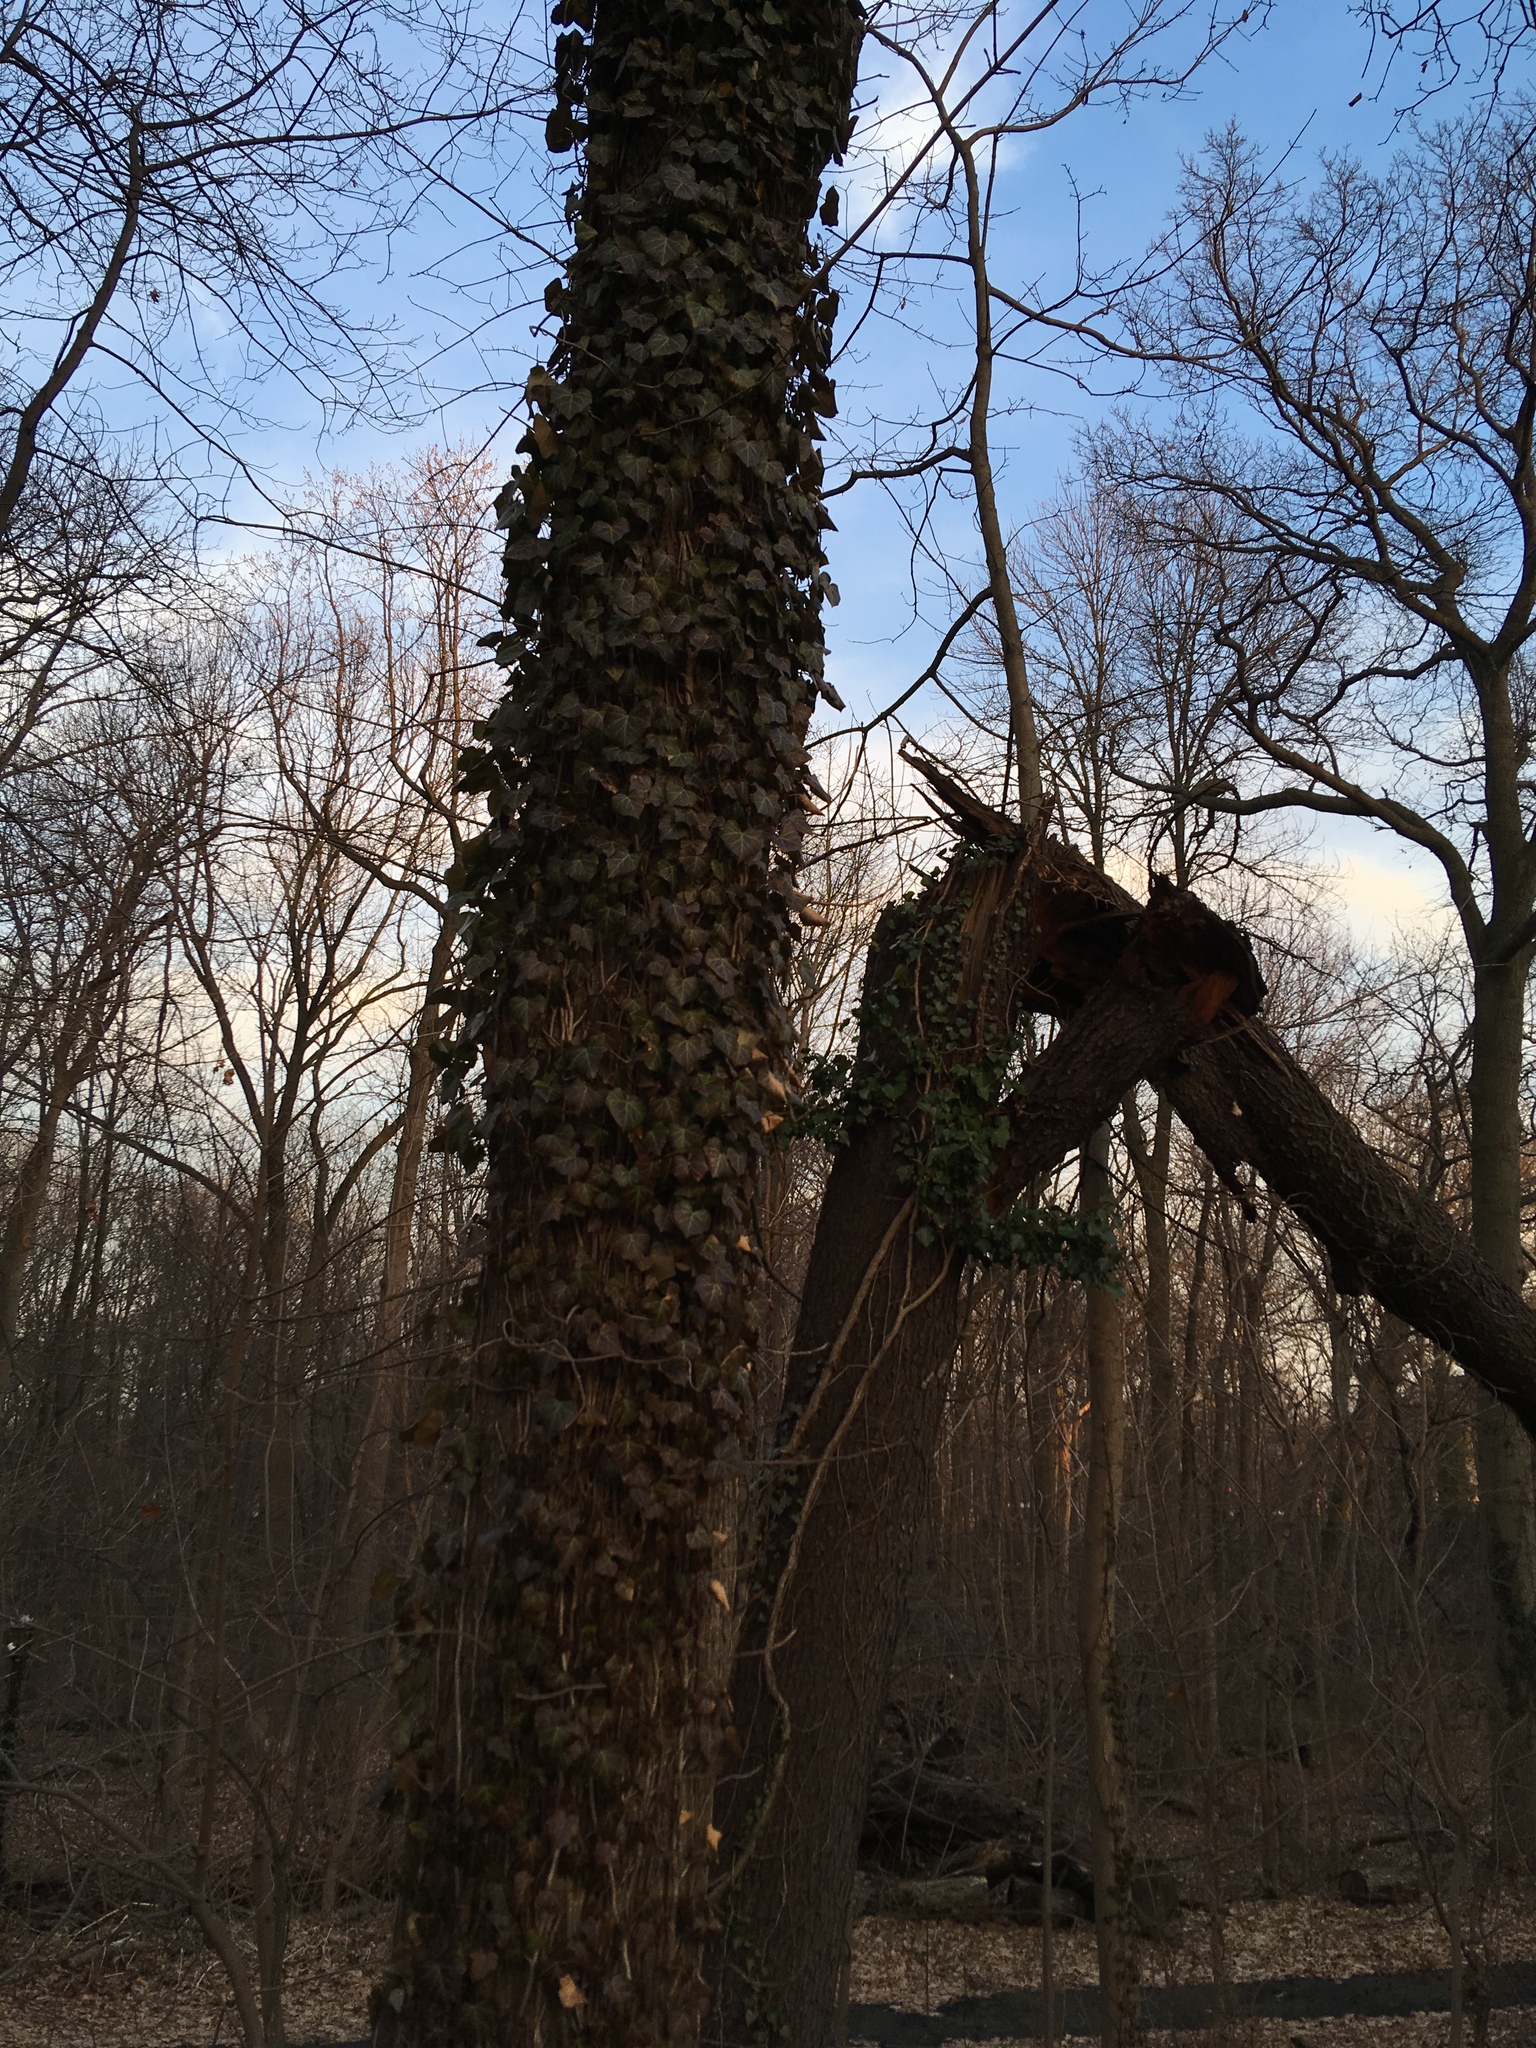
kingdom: Plantae
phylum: Tracheophyta
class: Magnoliopsida
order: Apiales
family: Araliaceae
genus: Hedera
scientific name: Hedera helix
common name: Ivy
